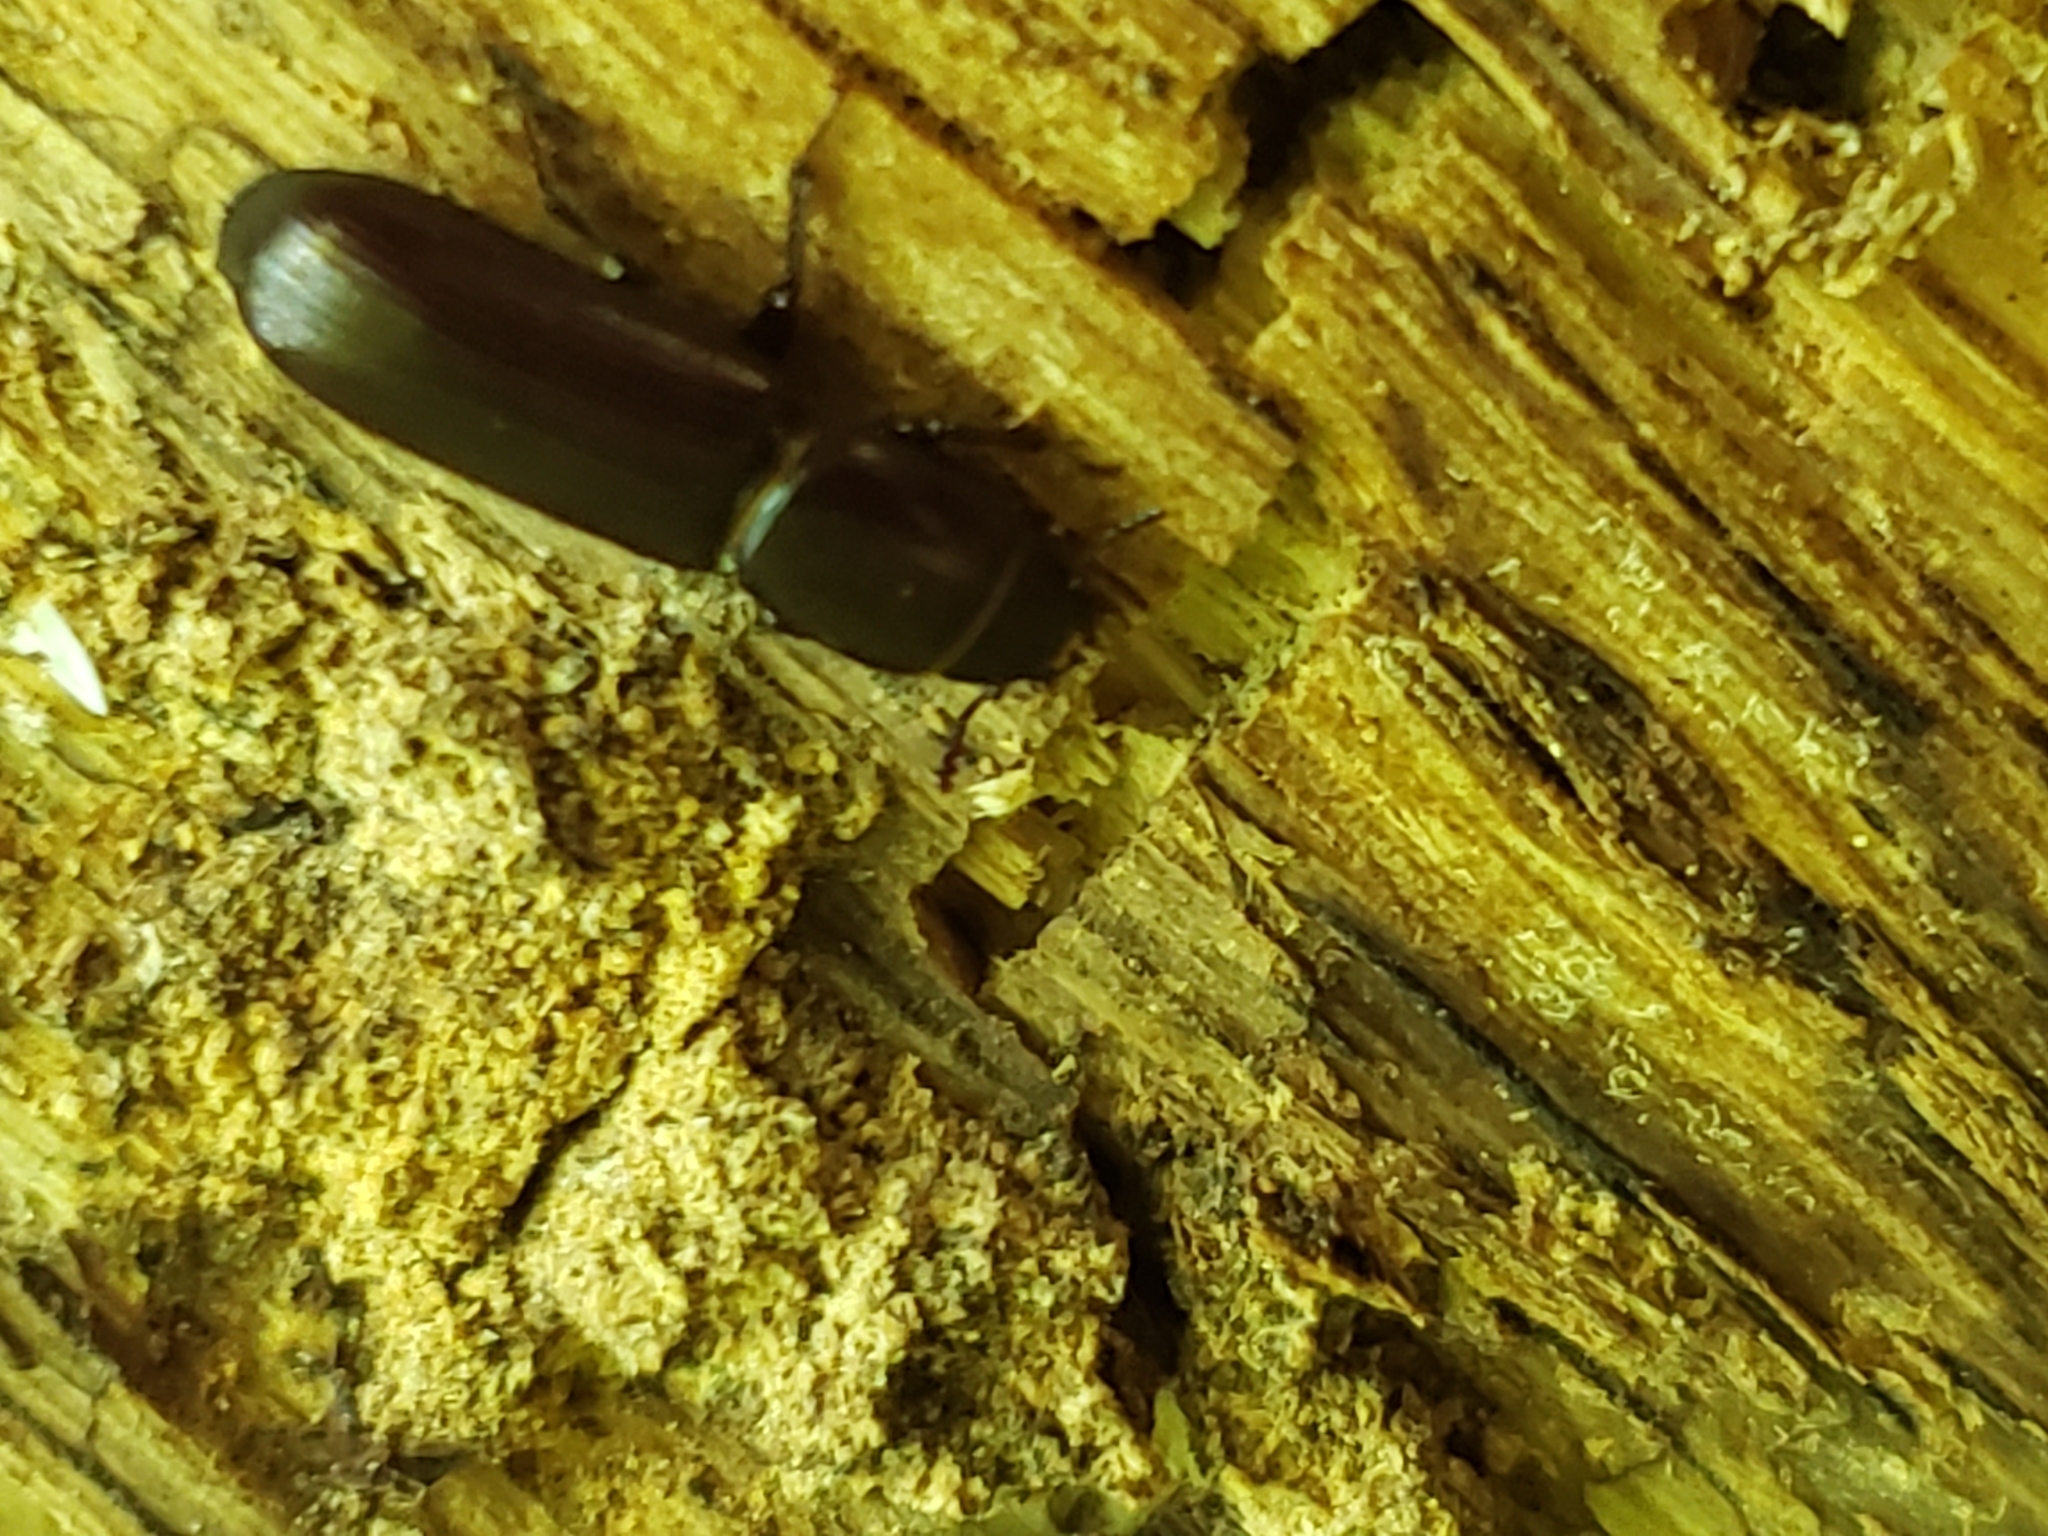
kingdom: Animalia
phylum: Arthropoda
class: Insecta
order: Coleoptera
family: Trogossitidae
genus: Airora
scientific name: Airora cylindrica
